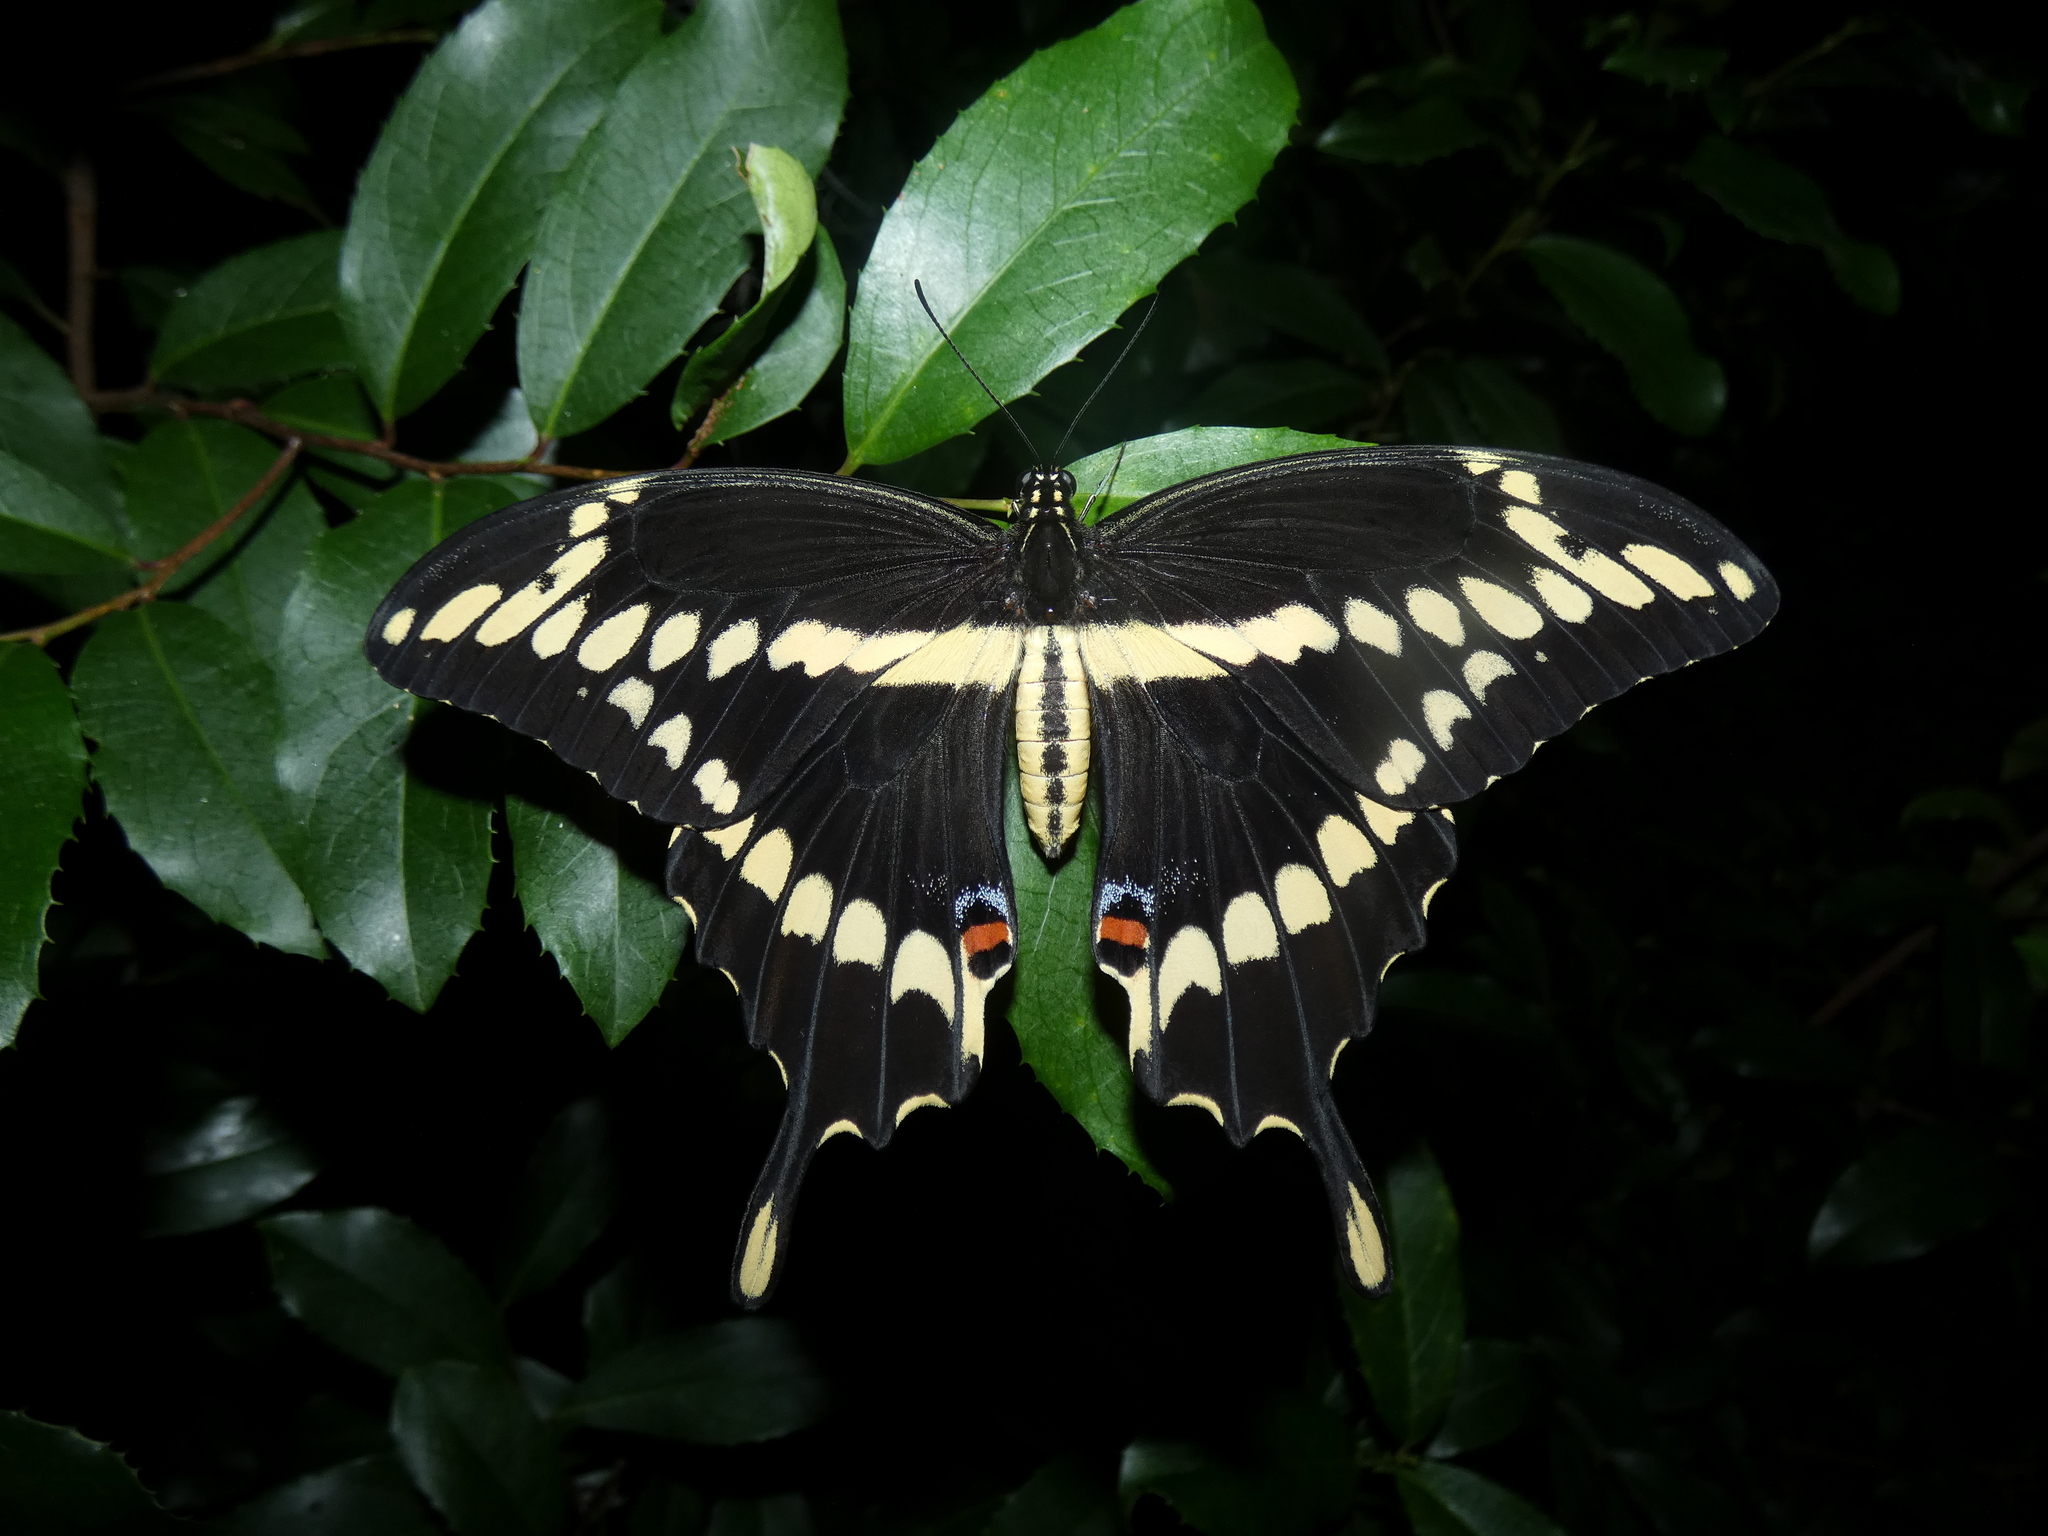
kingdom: Animalia
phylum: Arthropoda
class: Insecta
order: Lepidoptera
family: Papilionidae
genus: Papilio
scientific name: Papilio cresphontes
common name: Giant swallowtail
